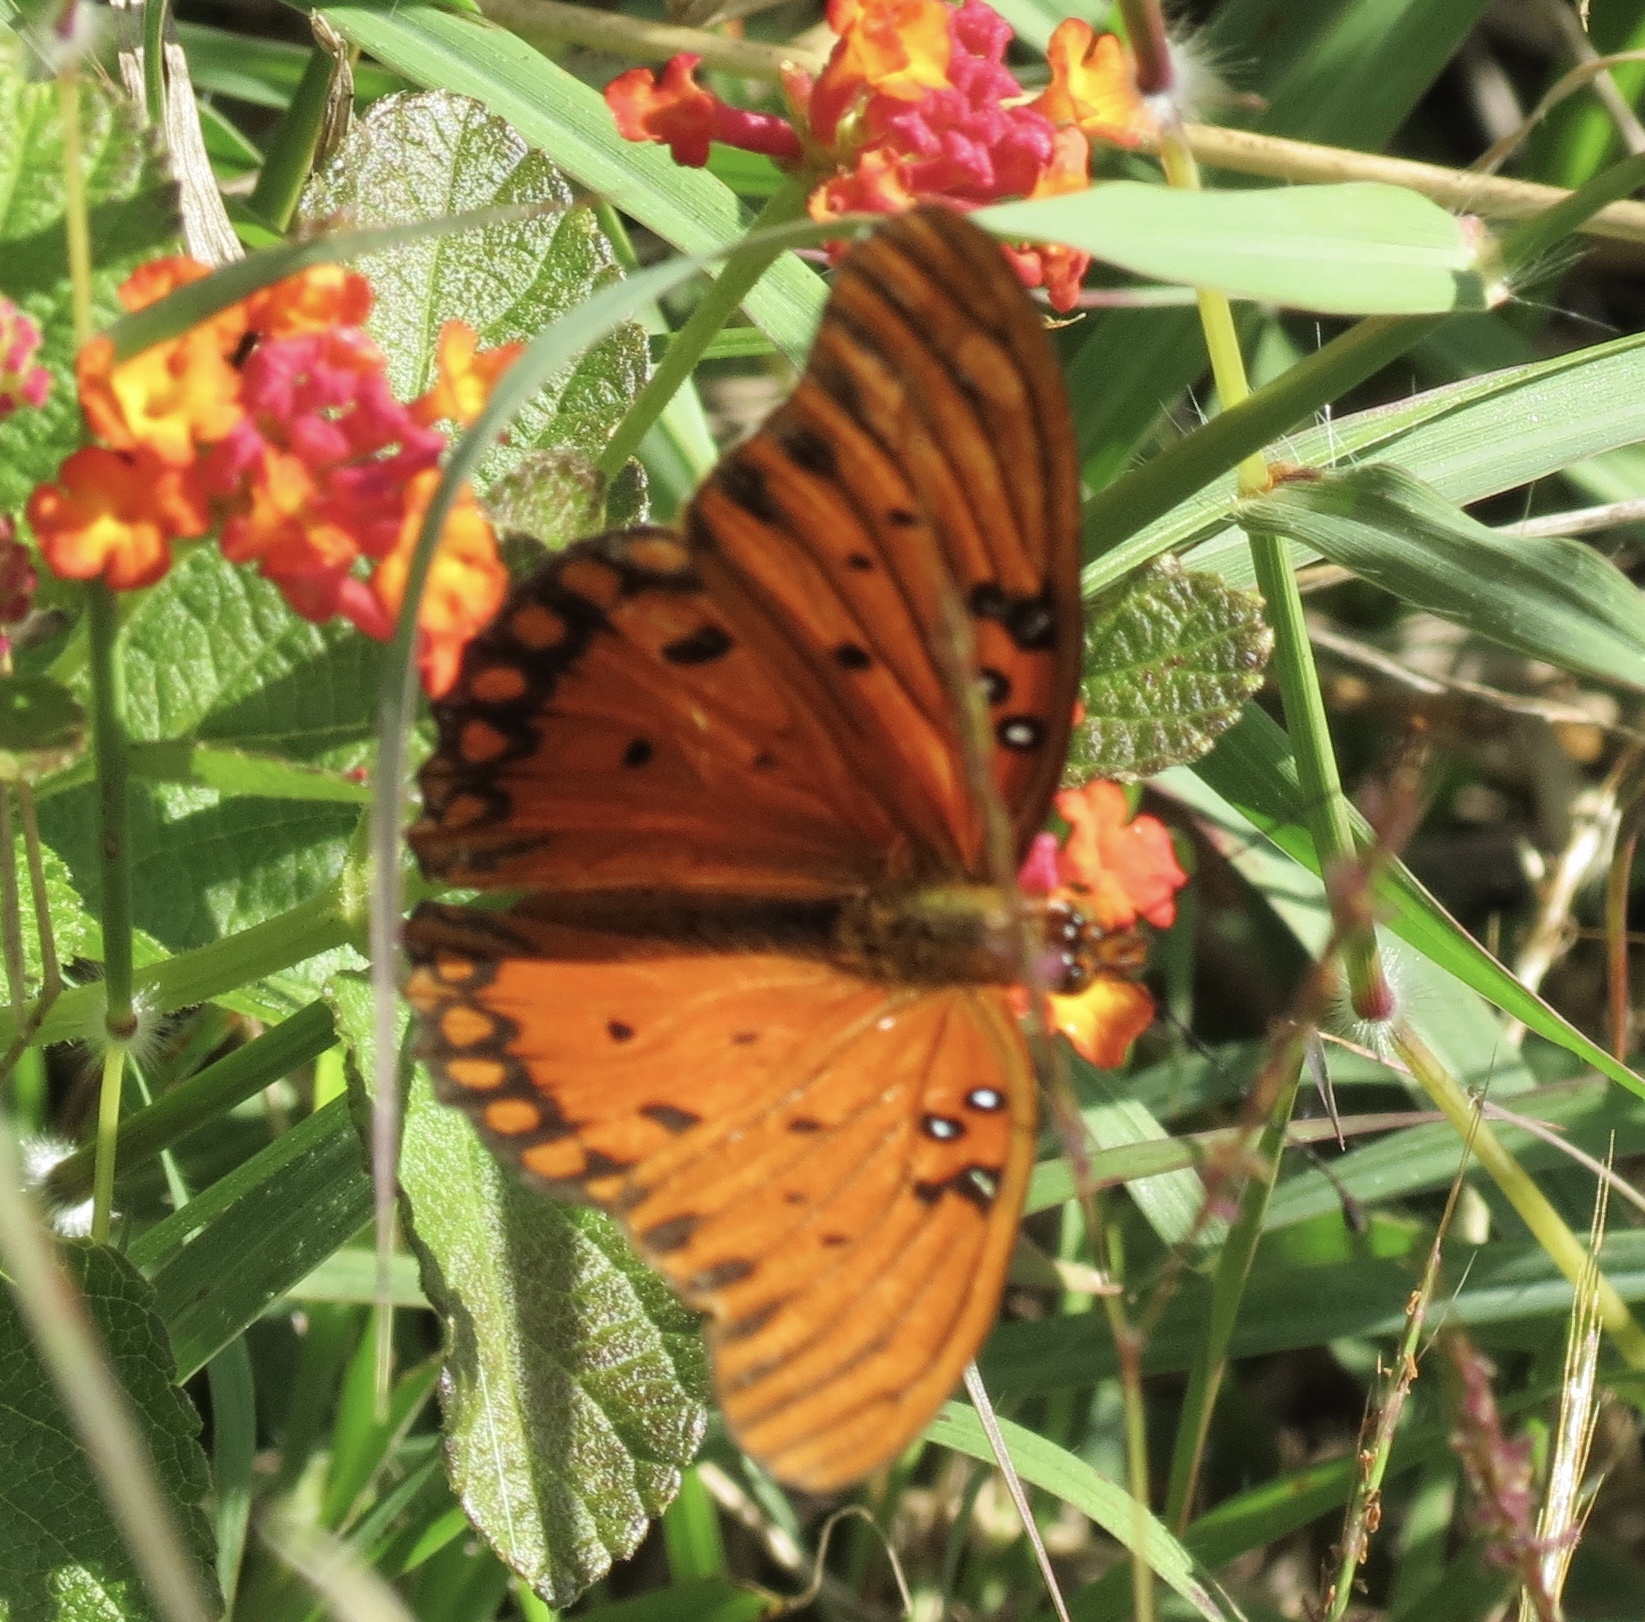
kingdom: Animalia
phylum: Arthropoda
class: Insecta
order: Lepidoptera
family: Nymphalidae
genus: Dione
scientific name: Dione vanillae
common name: Gulf fritillary
